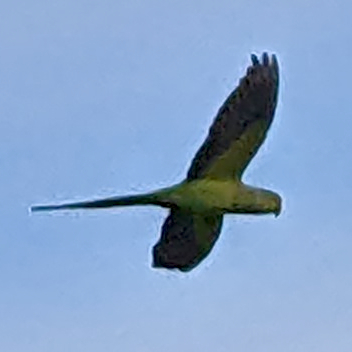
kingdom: Animalia
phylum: Chordata
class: Aves
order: Psittaciformes
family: Psittacidae
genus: Psittacula
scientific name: Psittacula krameri
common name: Rose-ringed parakeet
